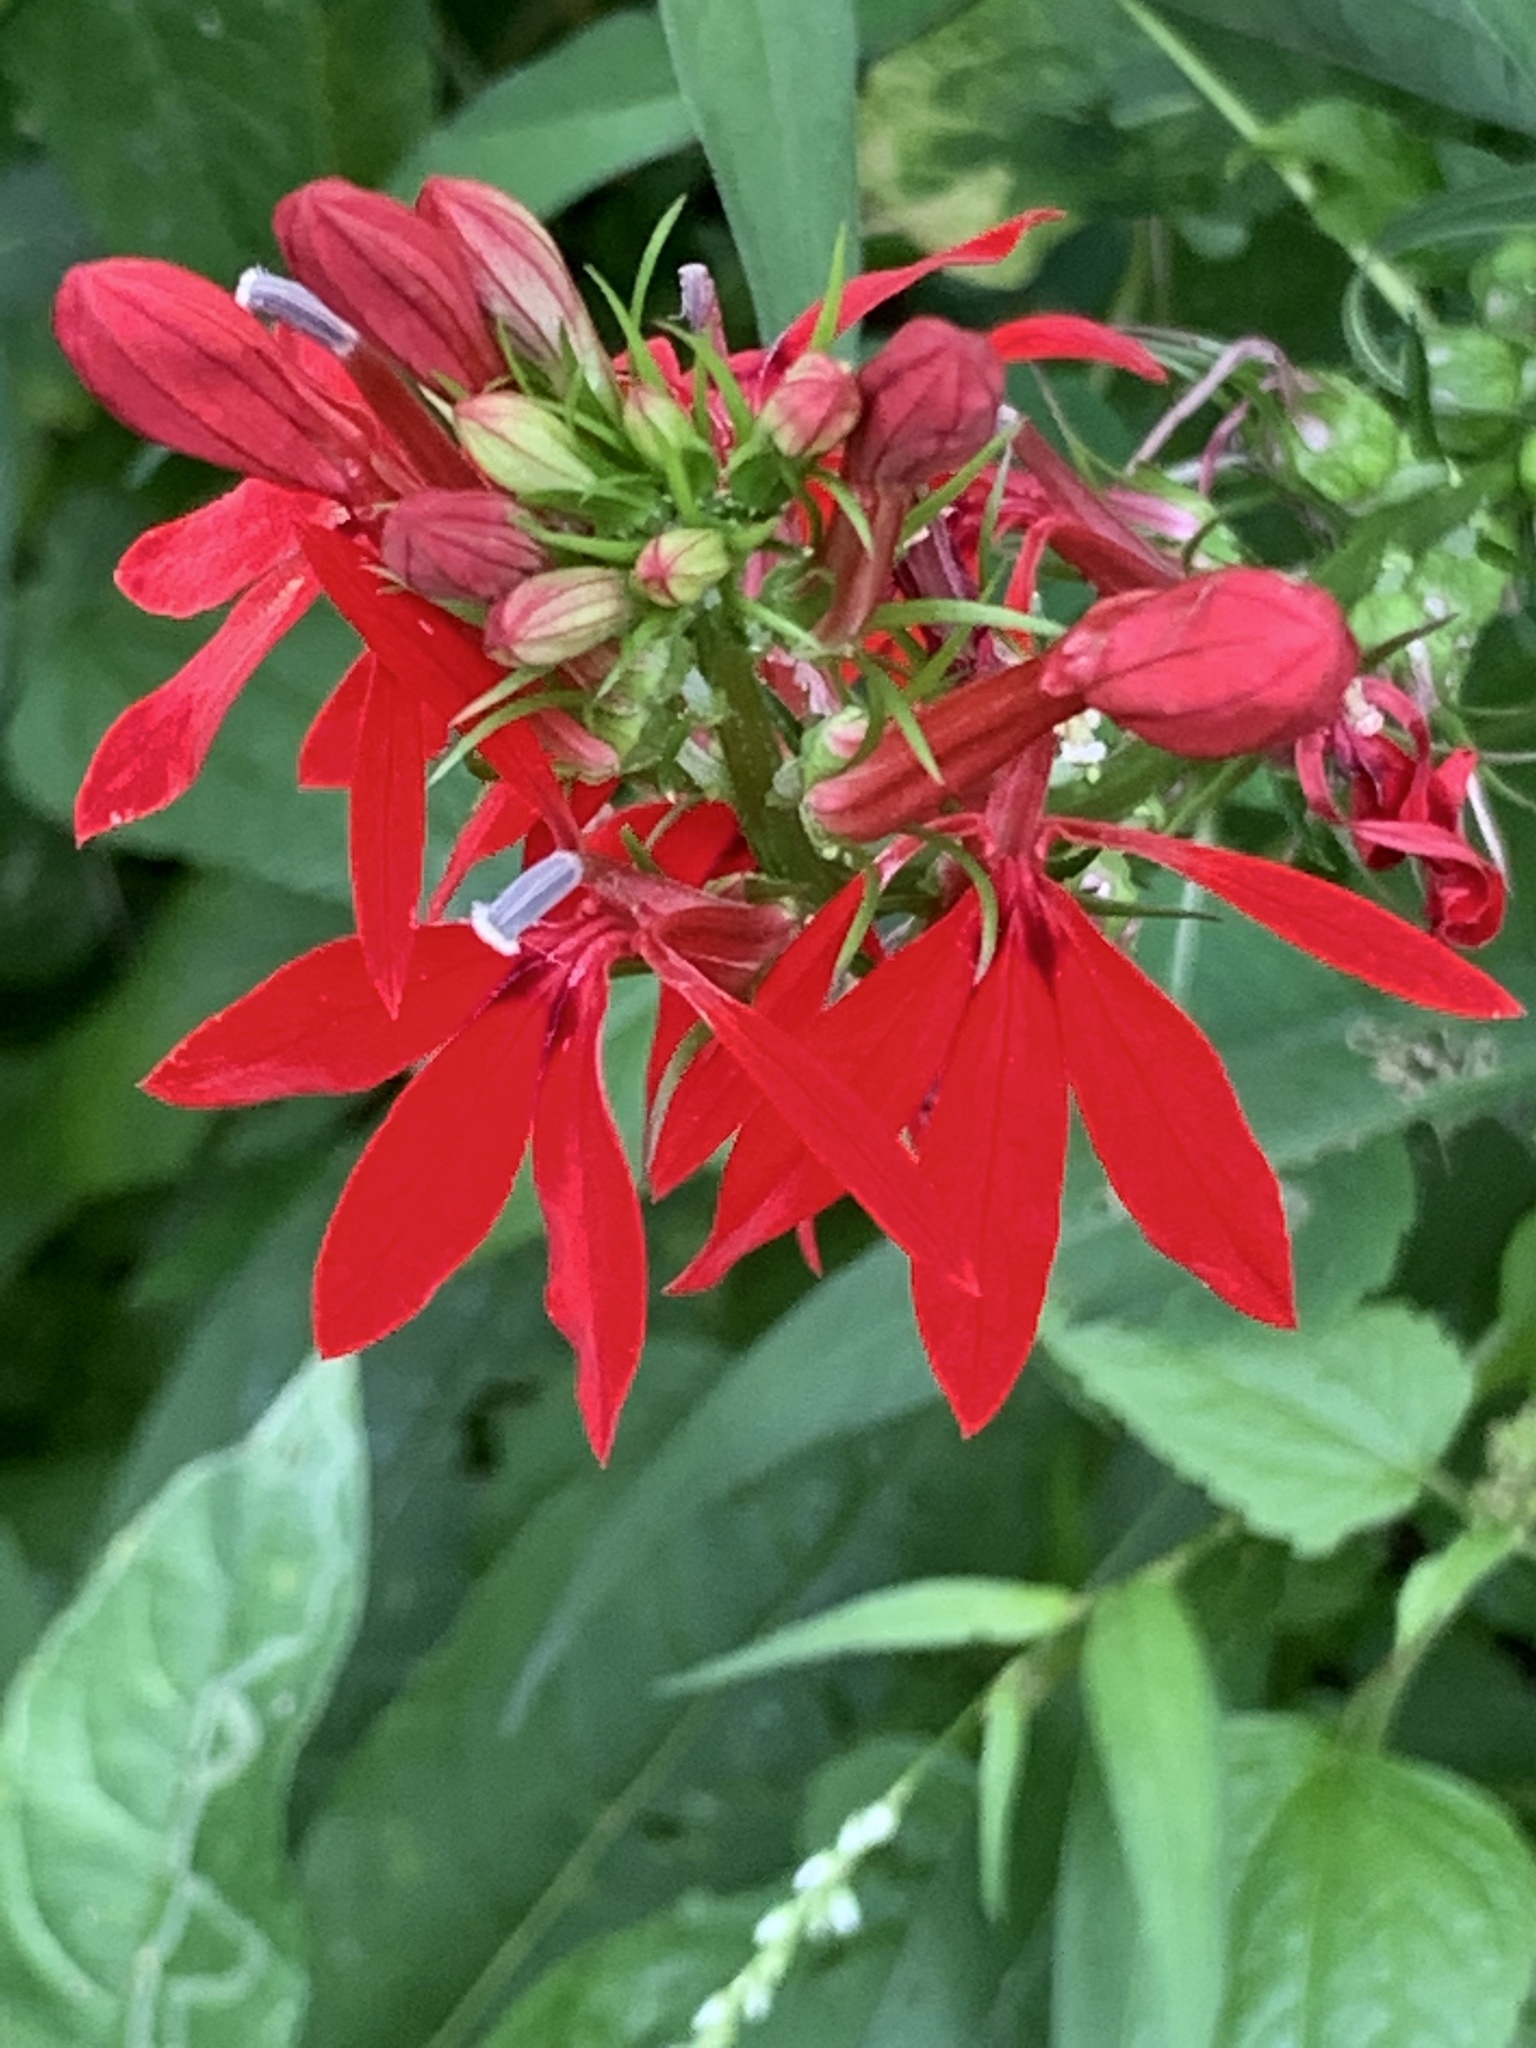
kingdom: Plantae
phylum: Tracheophyta
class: Magnoliopsida
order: Asterales
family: Campanulaceae
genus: Lobelia
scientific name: Lobelia cardinalis
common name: Cardinal flower
